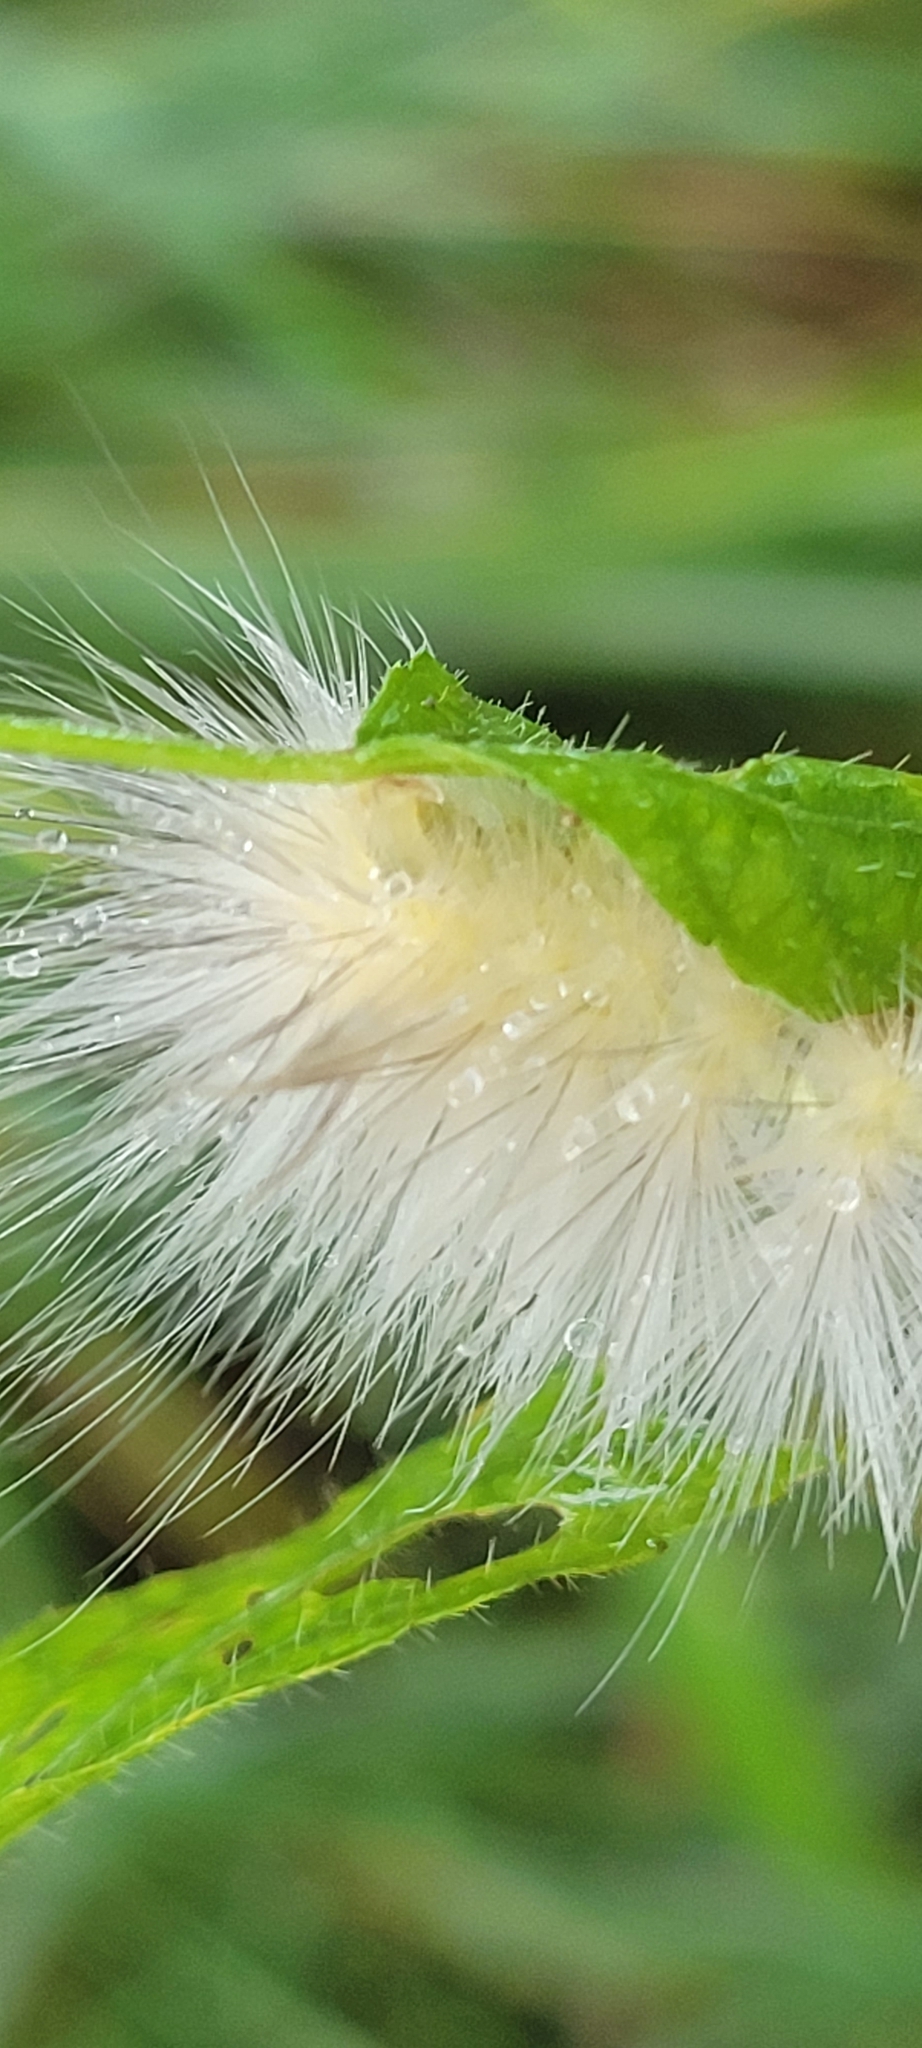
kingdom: Animalia
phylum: Arthropoda
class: Insecta
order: Lepidoptera
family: Erebidae
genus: Spilosoma
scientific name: Spilosoma virginica
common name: Virginia tiger moth
